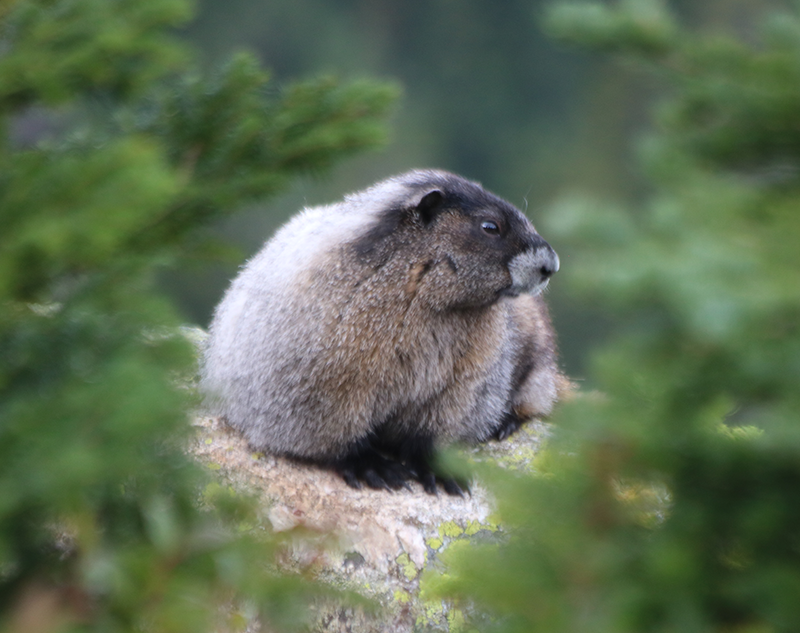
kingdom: Animalia
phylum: Chordata
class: Mammalia
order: Rodentia
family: Sciuridae
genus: Marmota
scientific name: Marmota caligata
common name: Hoary marmot
